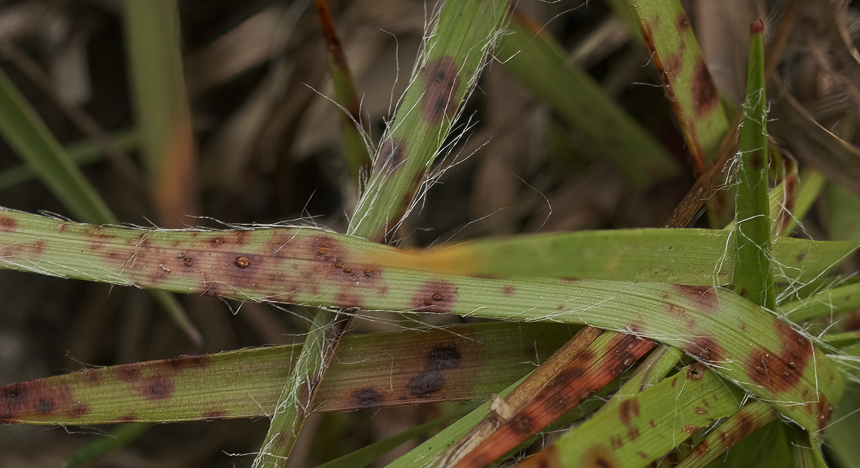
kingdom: Fungi
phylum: Basidiomycota
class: Pucciniomycetes
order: Pucciniales
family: Pucciniaceae
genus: Puccinia
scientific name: Puccinia obscura
